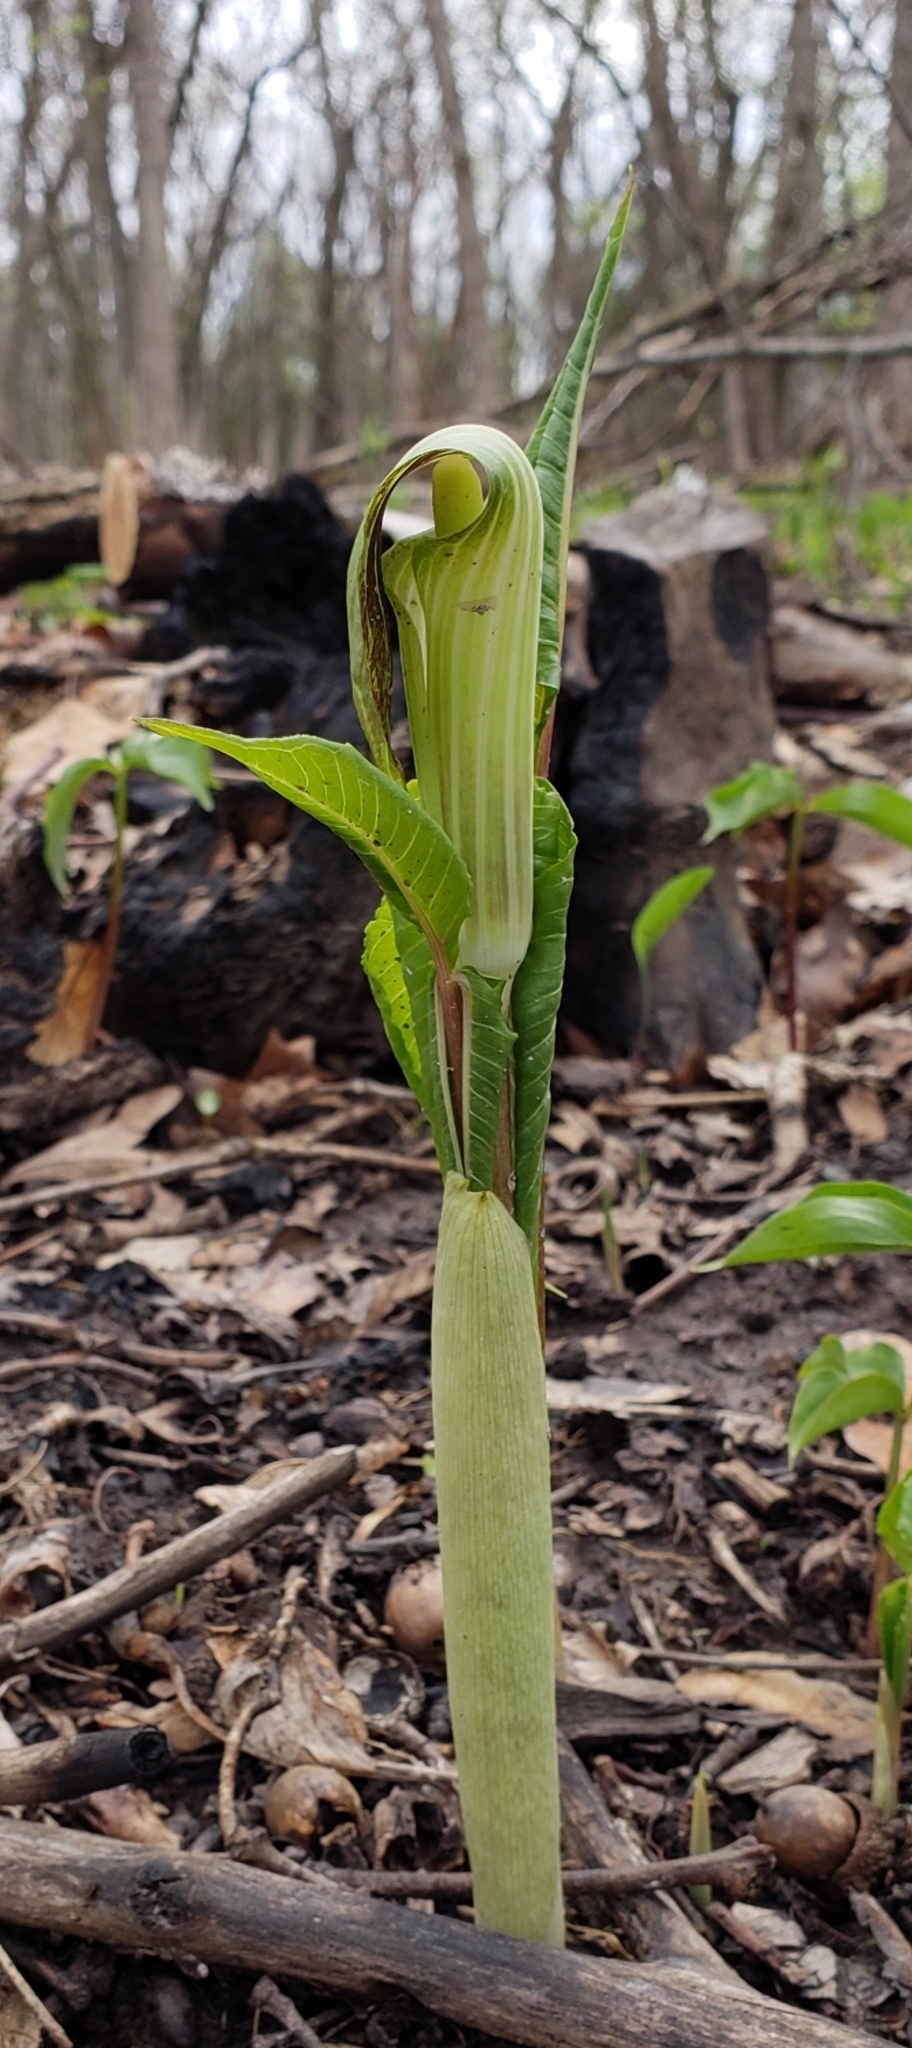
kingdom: Plantae
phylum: Tracheophyta
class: Liliopsida
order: Alismatales
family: Araceae
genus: Arisaema
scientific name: Arisaema triphyllum
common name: Jack-in-the-pulpit
